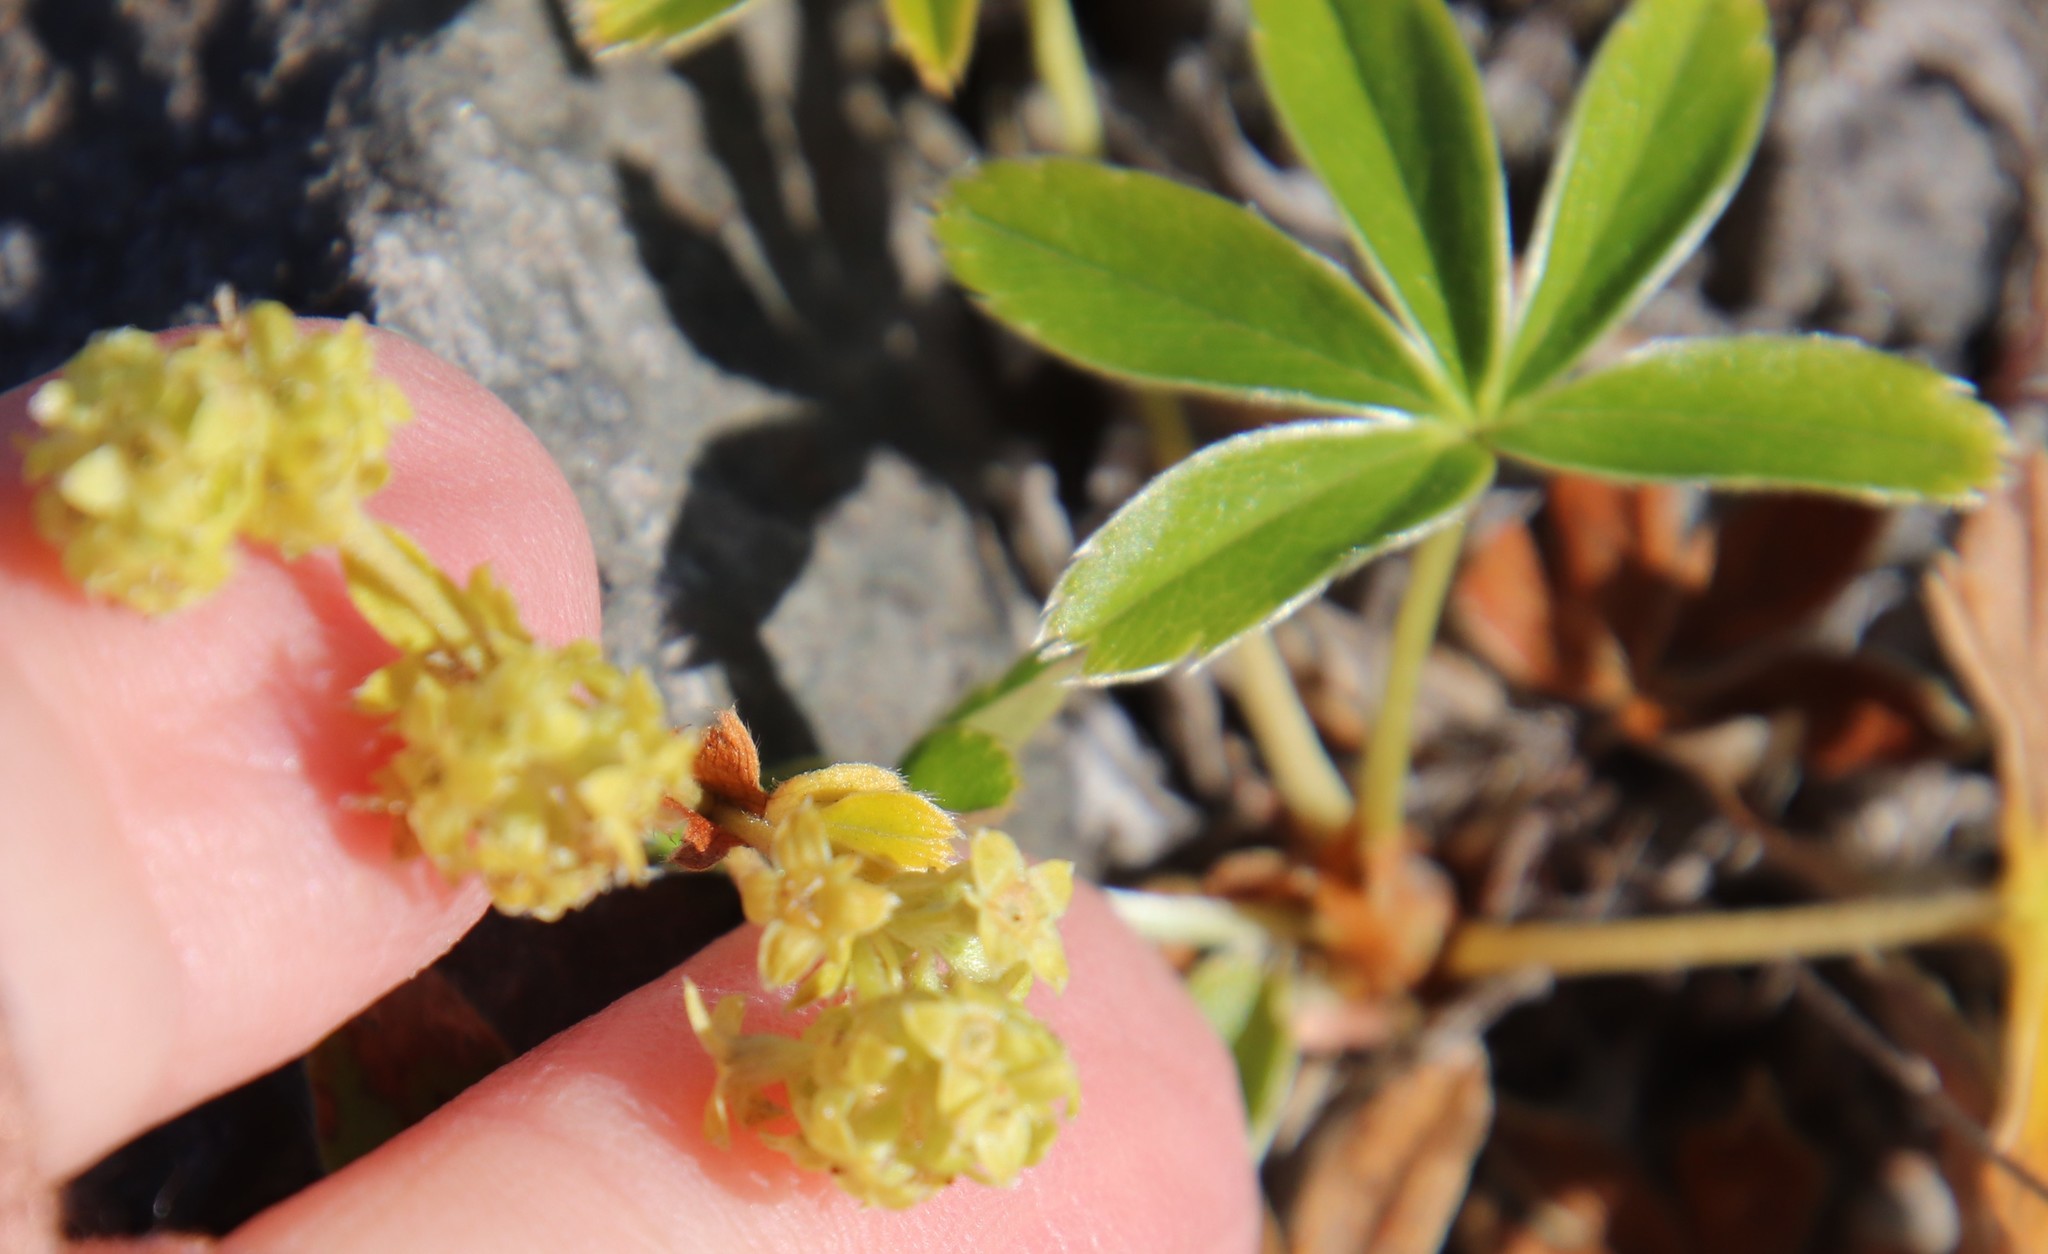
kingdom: Plantae
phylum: Tracheophyta
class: Magnoliopsida
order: Rosales
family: Rosaceae
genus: Alchemilla
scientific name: Alchemilla alpina
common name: Alpine lady's-mantle
